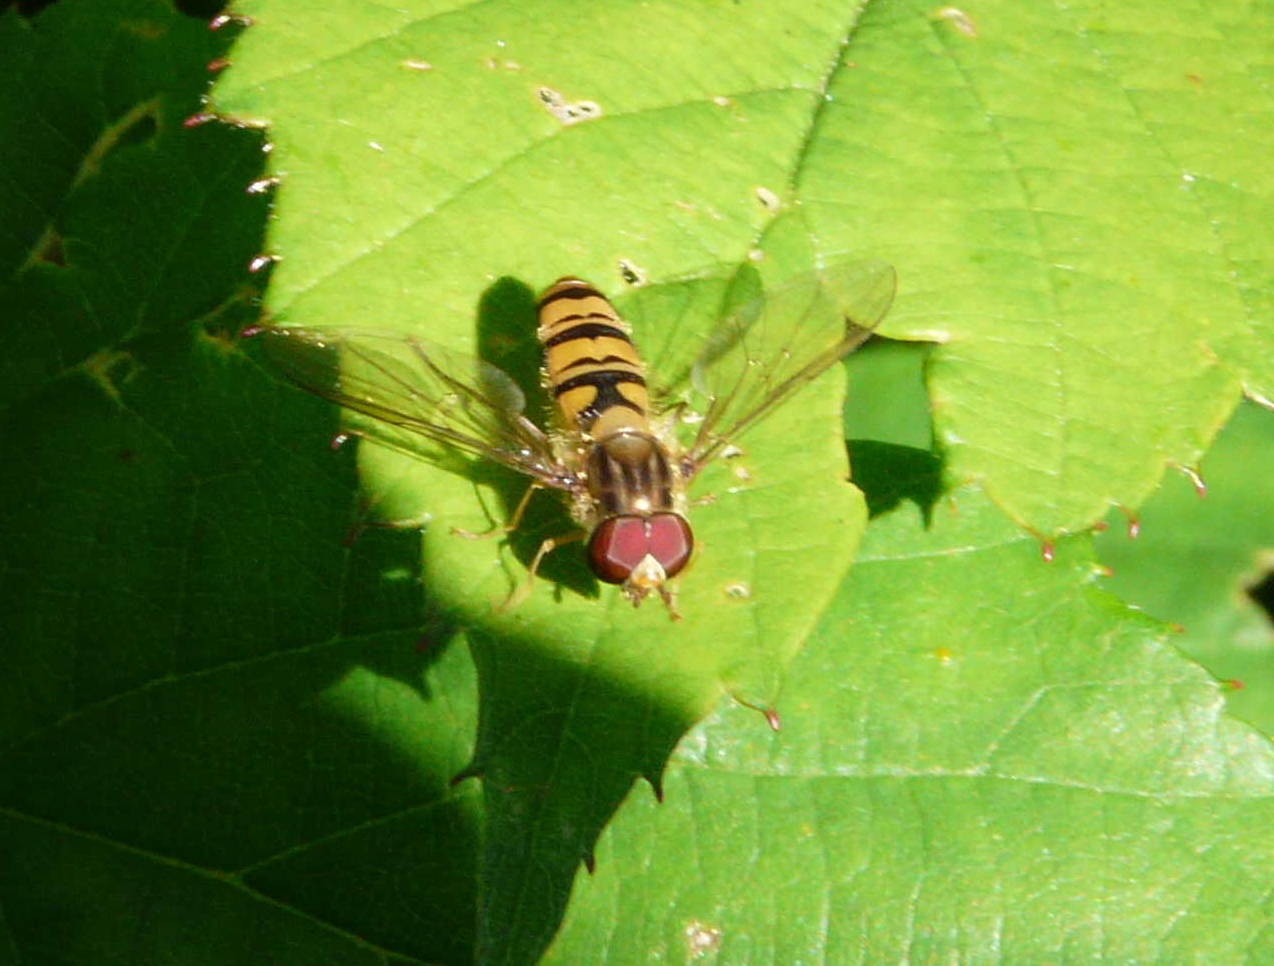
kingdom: Animalia
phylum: Arthropoda
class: Insecta
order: Diptera
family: Syrphidae
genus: Episyrphus
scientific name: Episyrphus balteatus
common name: Marmalade hoverfly
